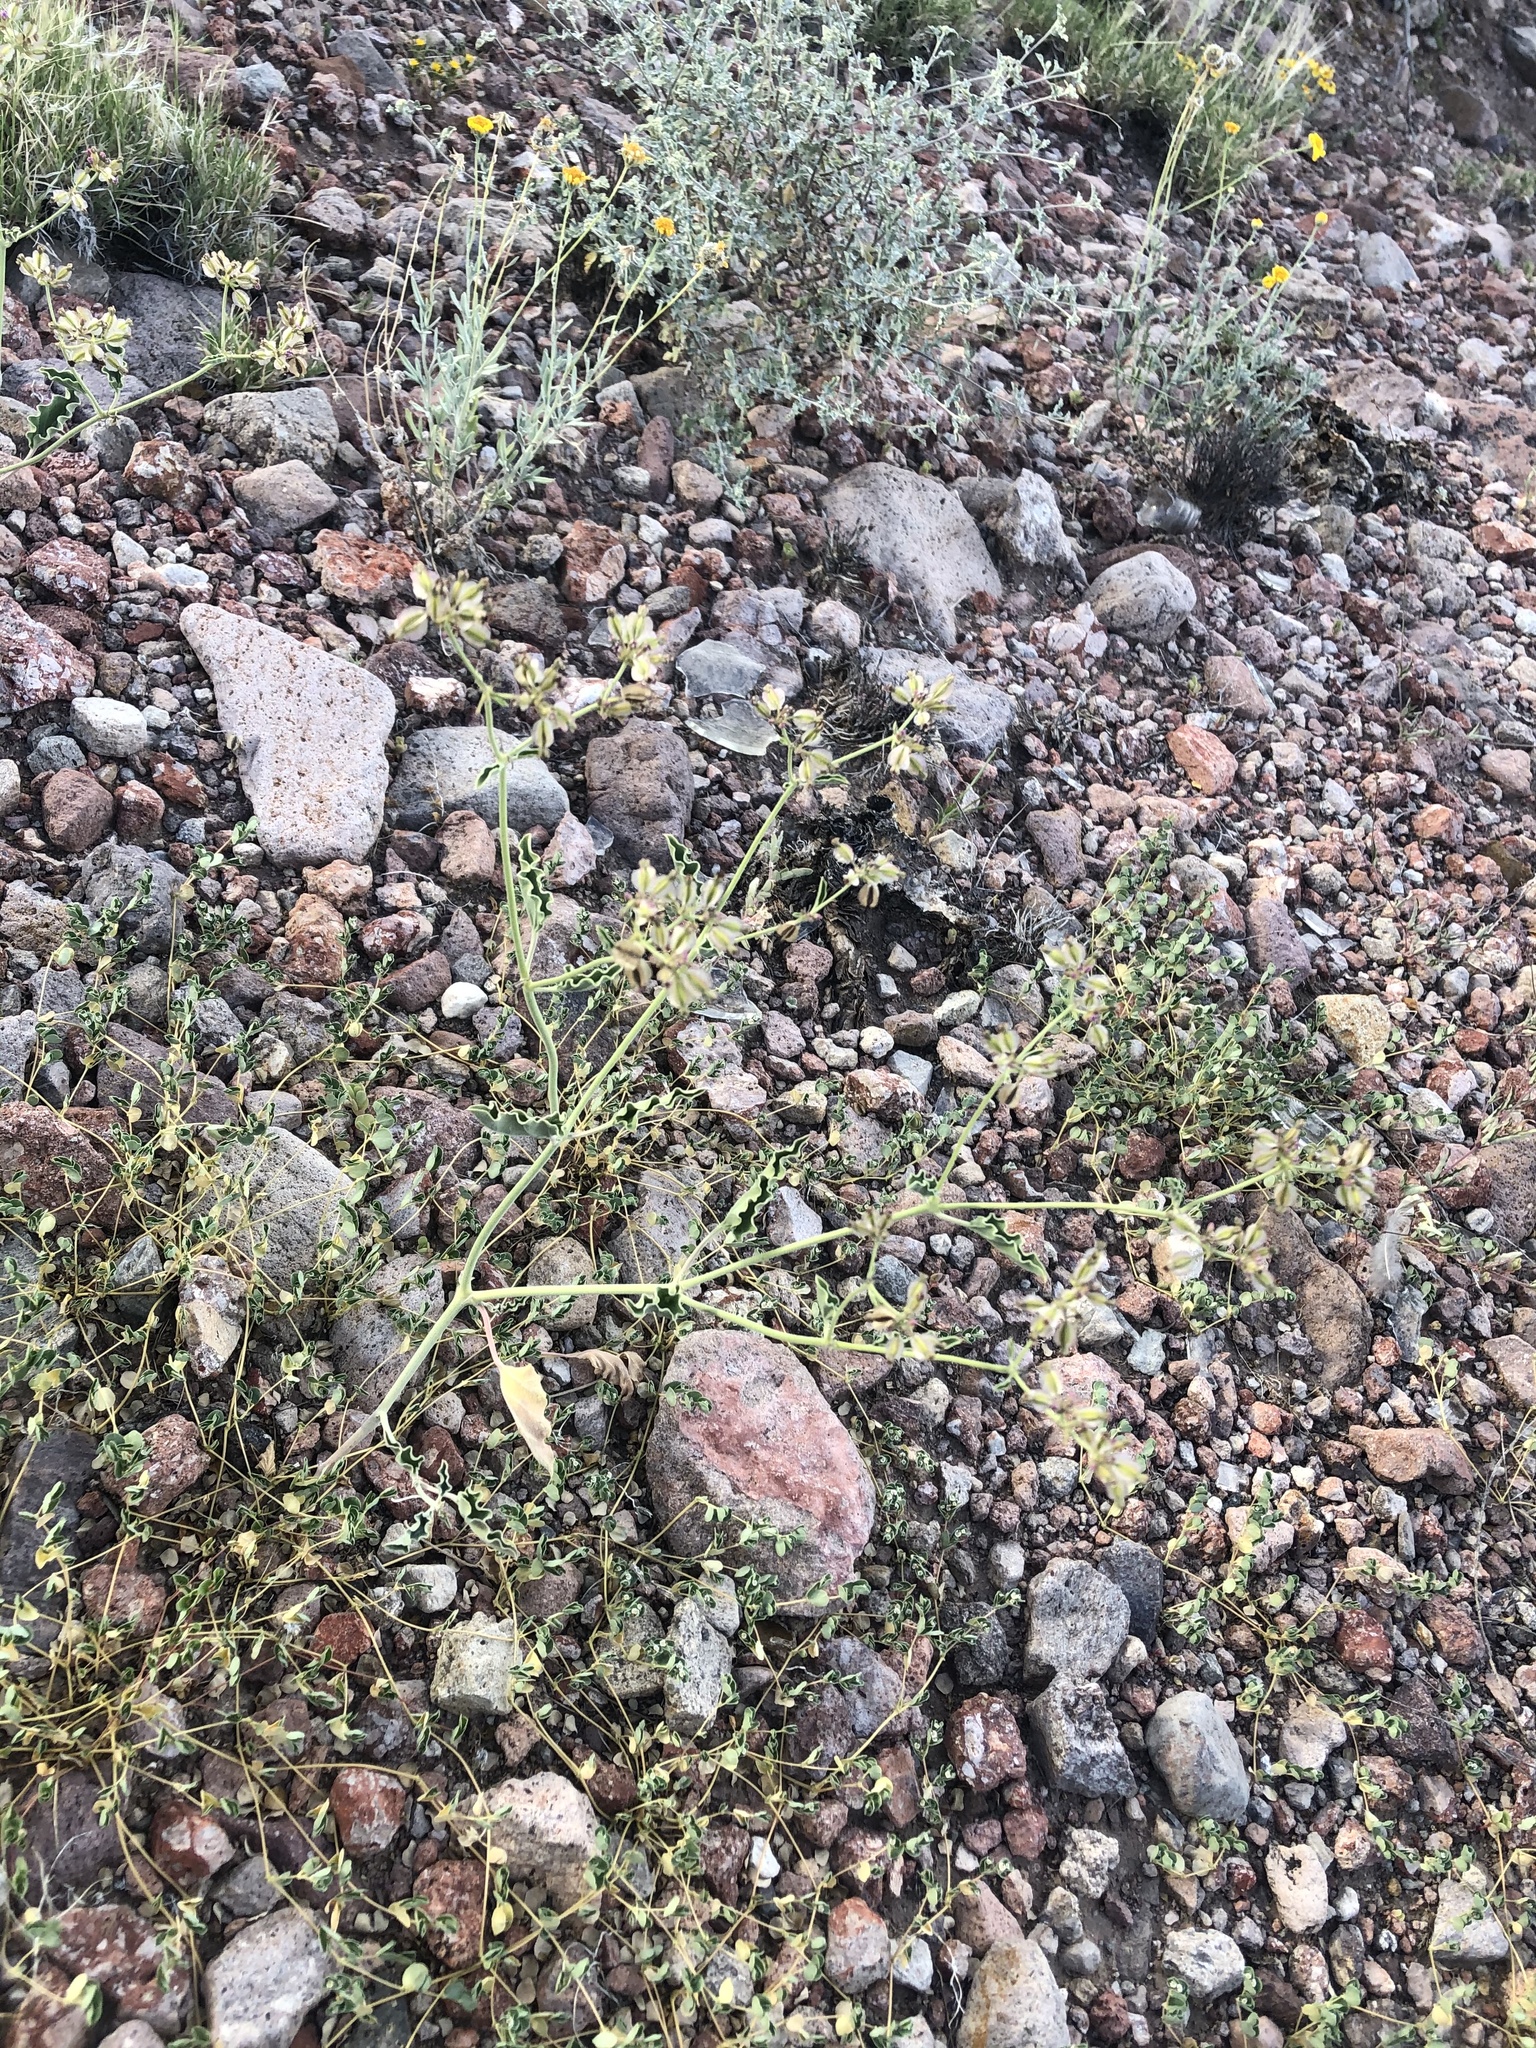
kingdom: Plantae
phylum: Tracheophyta
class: Magnoliopsida
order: Caryophyllales
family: Nyctaginaceae
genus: Acleisanthes
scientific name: Acleisanthes chenopodioides
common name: Goosefoot moonpod
